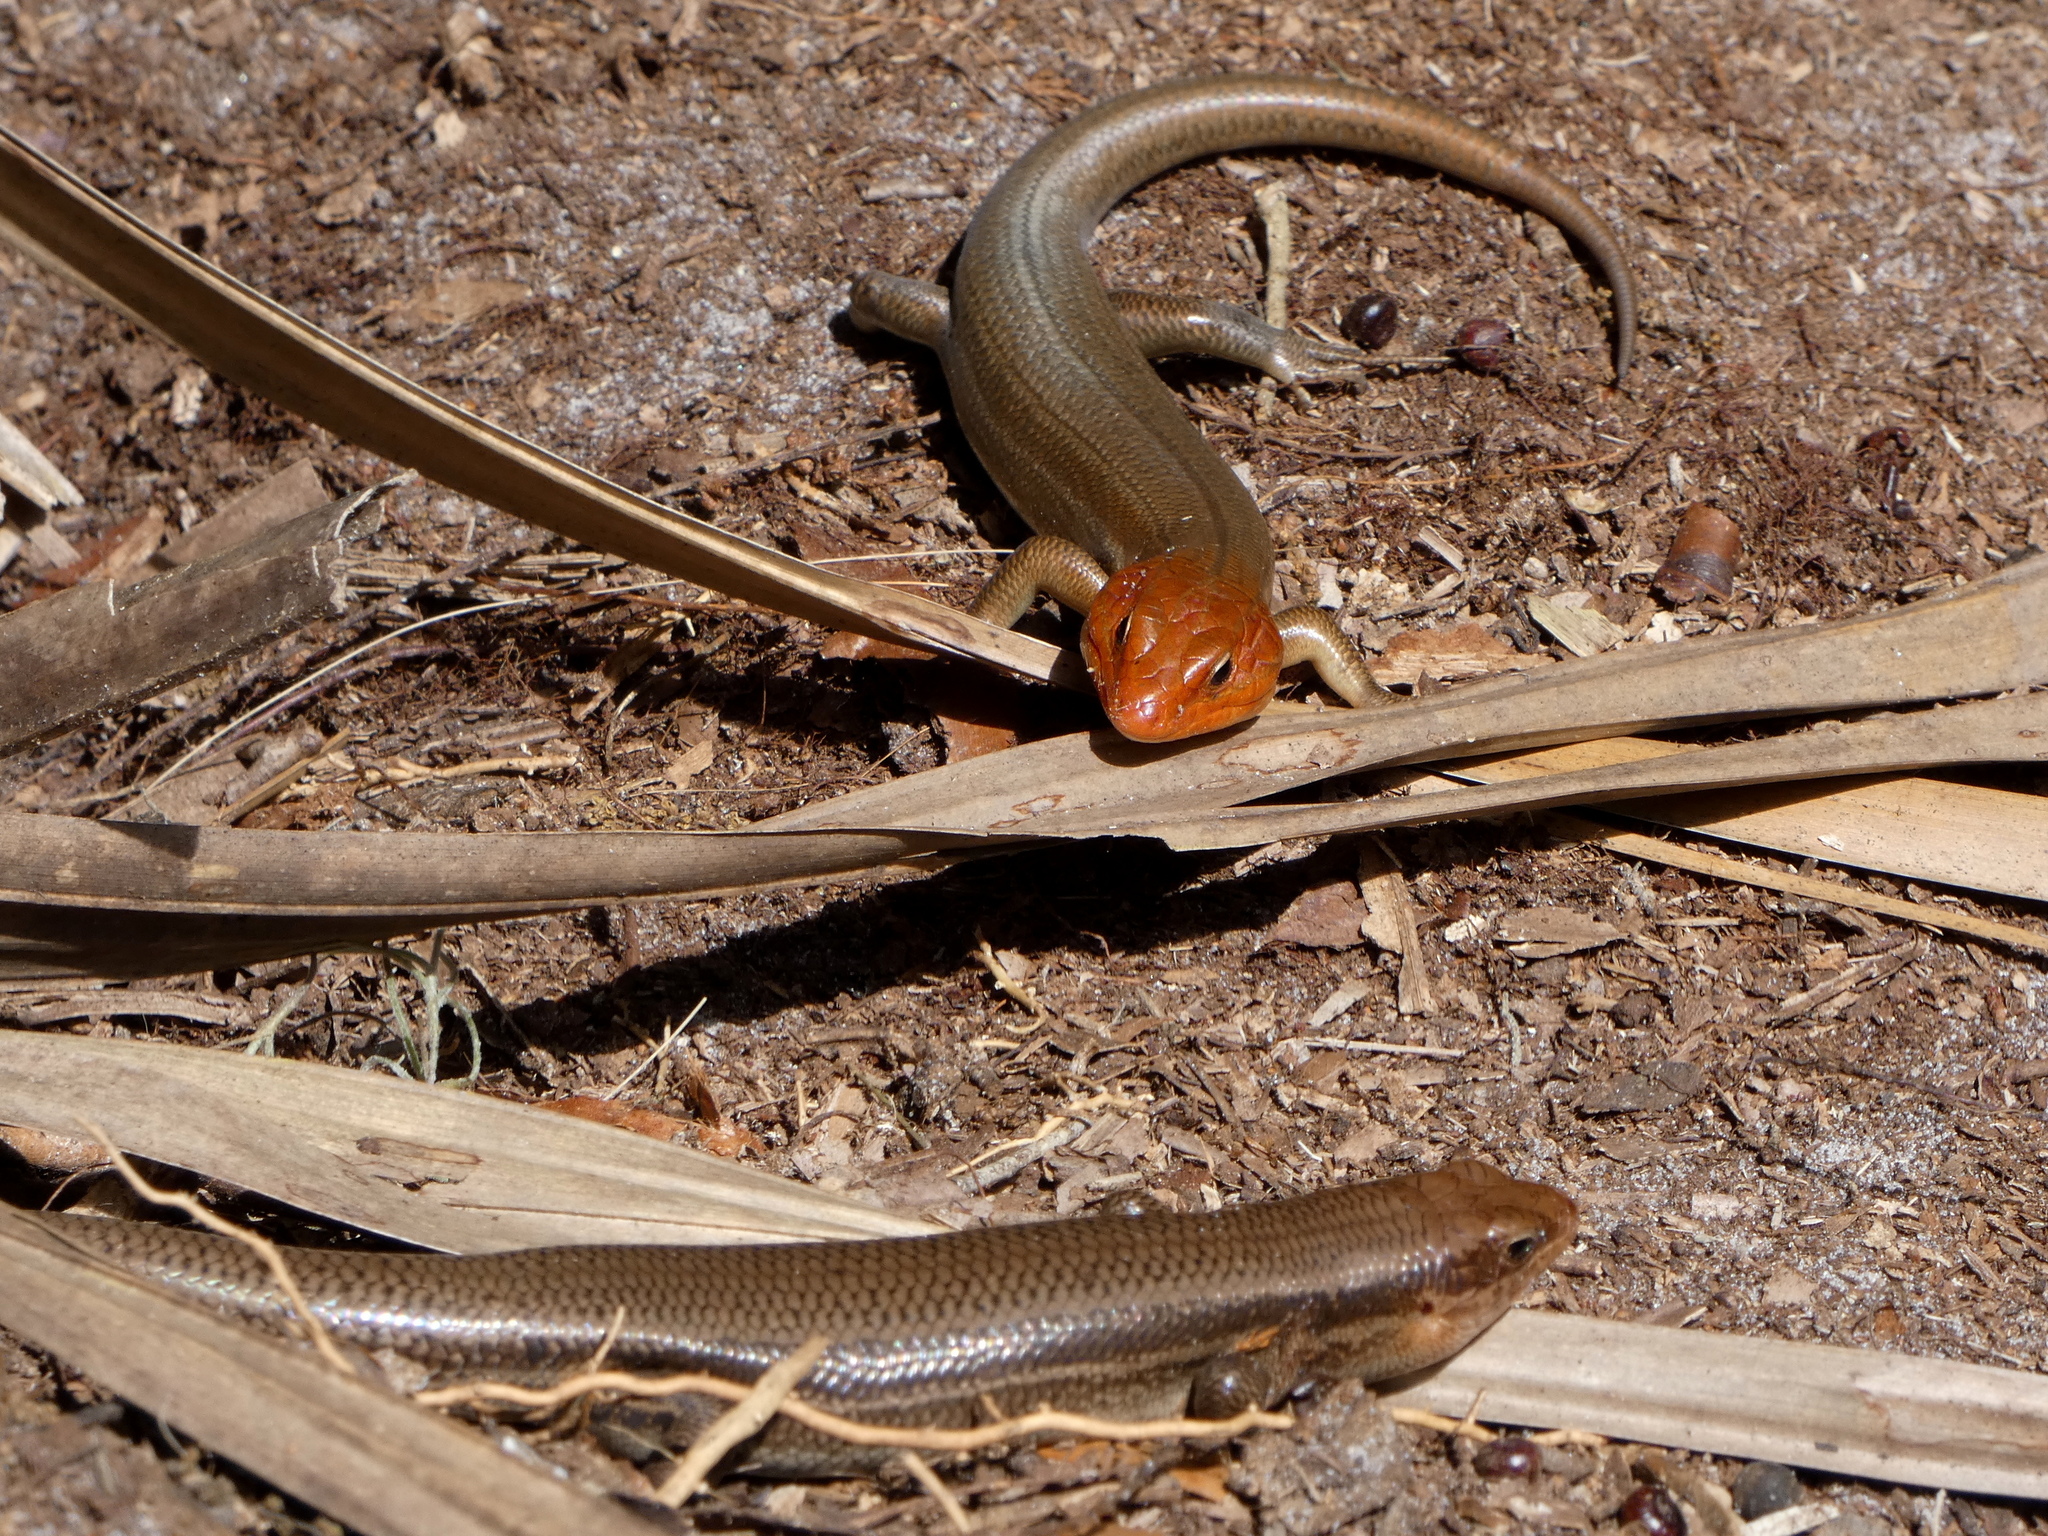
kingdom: Animalia
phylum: Chordata
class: Squamata
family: Scincidae
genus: Plestiodon
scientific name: Plestiodon laticeps
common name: Broadhead skink
